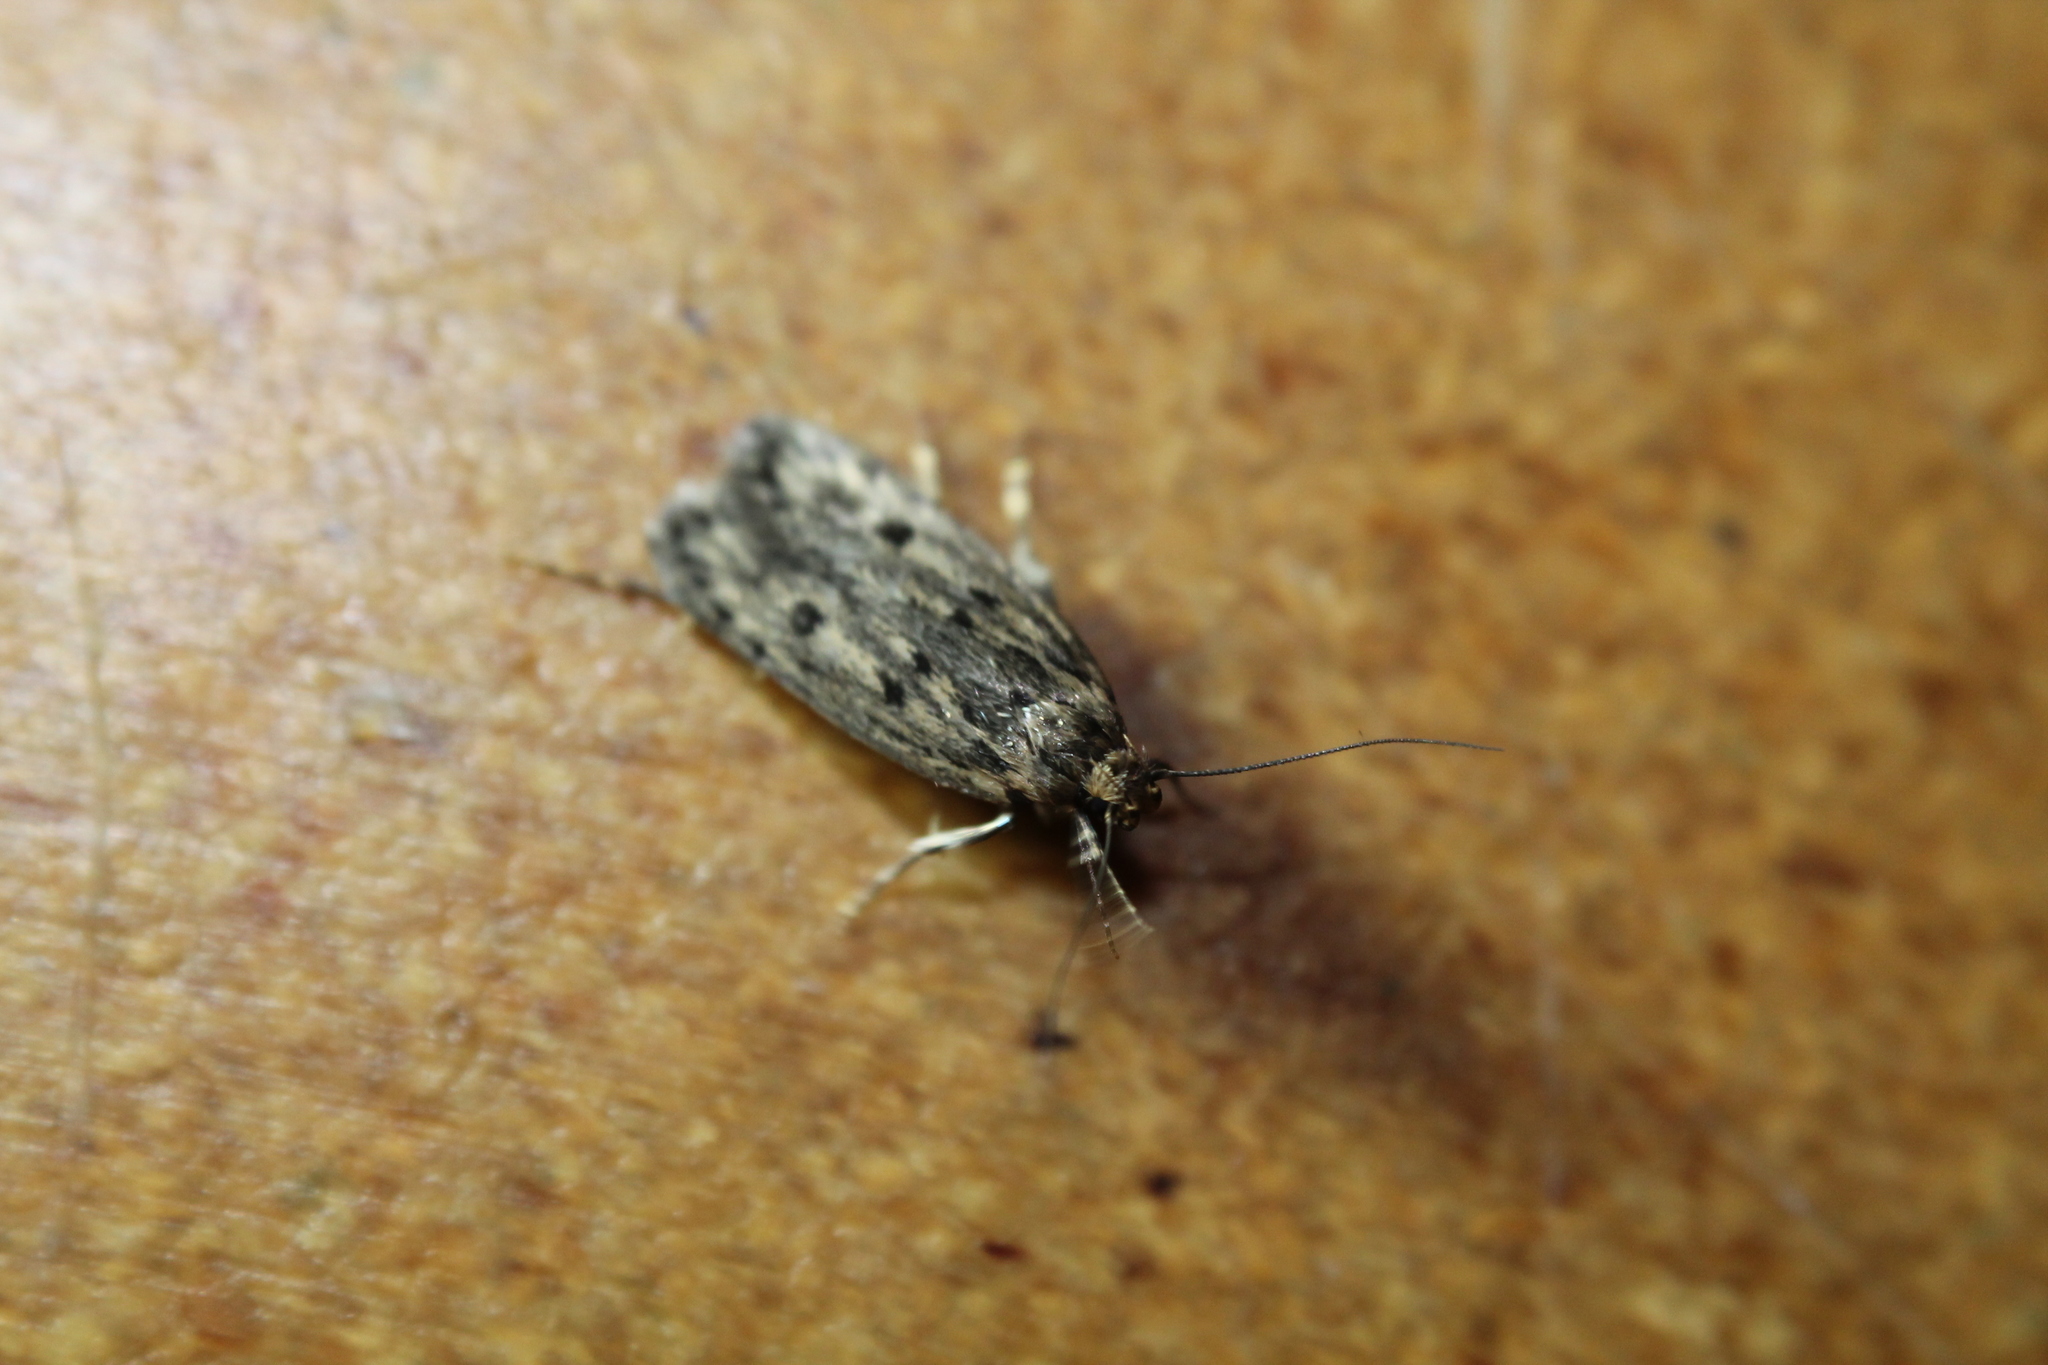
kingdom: Animalia
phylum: Arthropoda
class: Insecta
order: Lepidoptera
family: Oecophoridae
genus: Hofmannophila
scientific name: Hofmannophila pseudospretella
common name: Brown house moth
